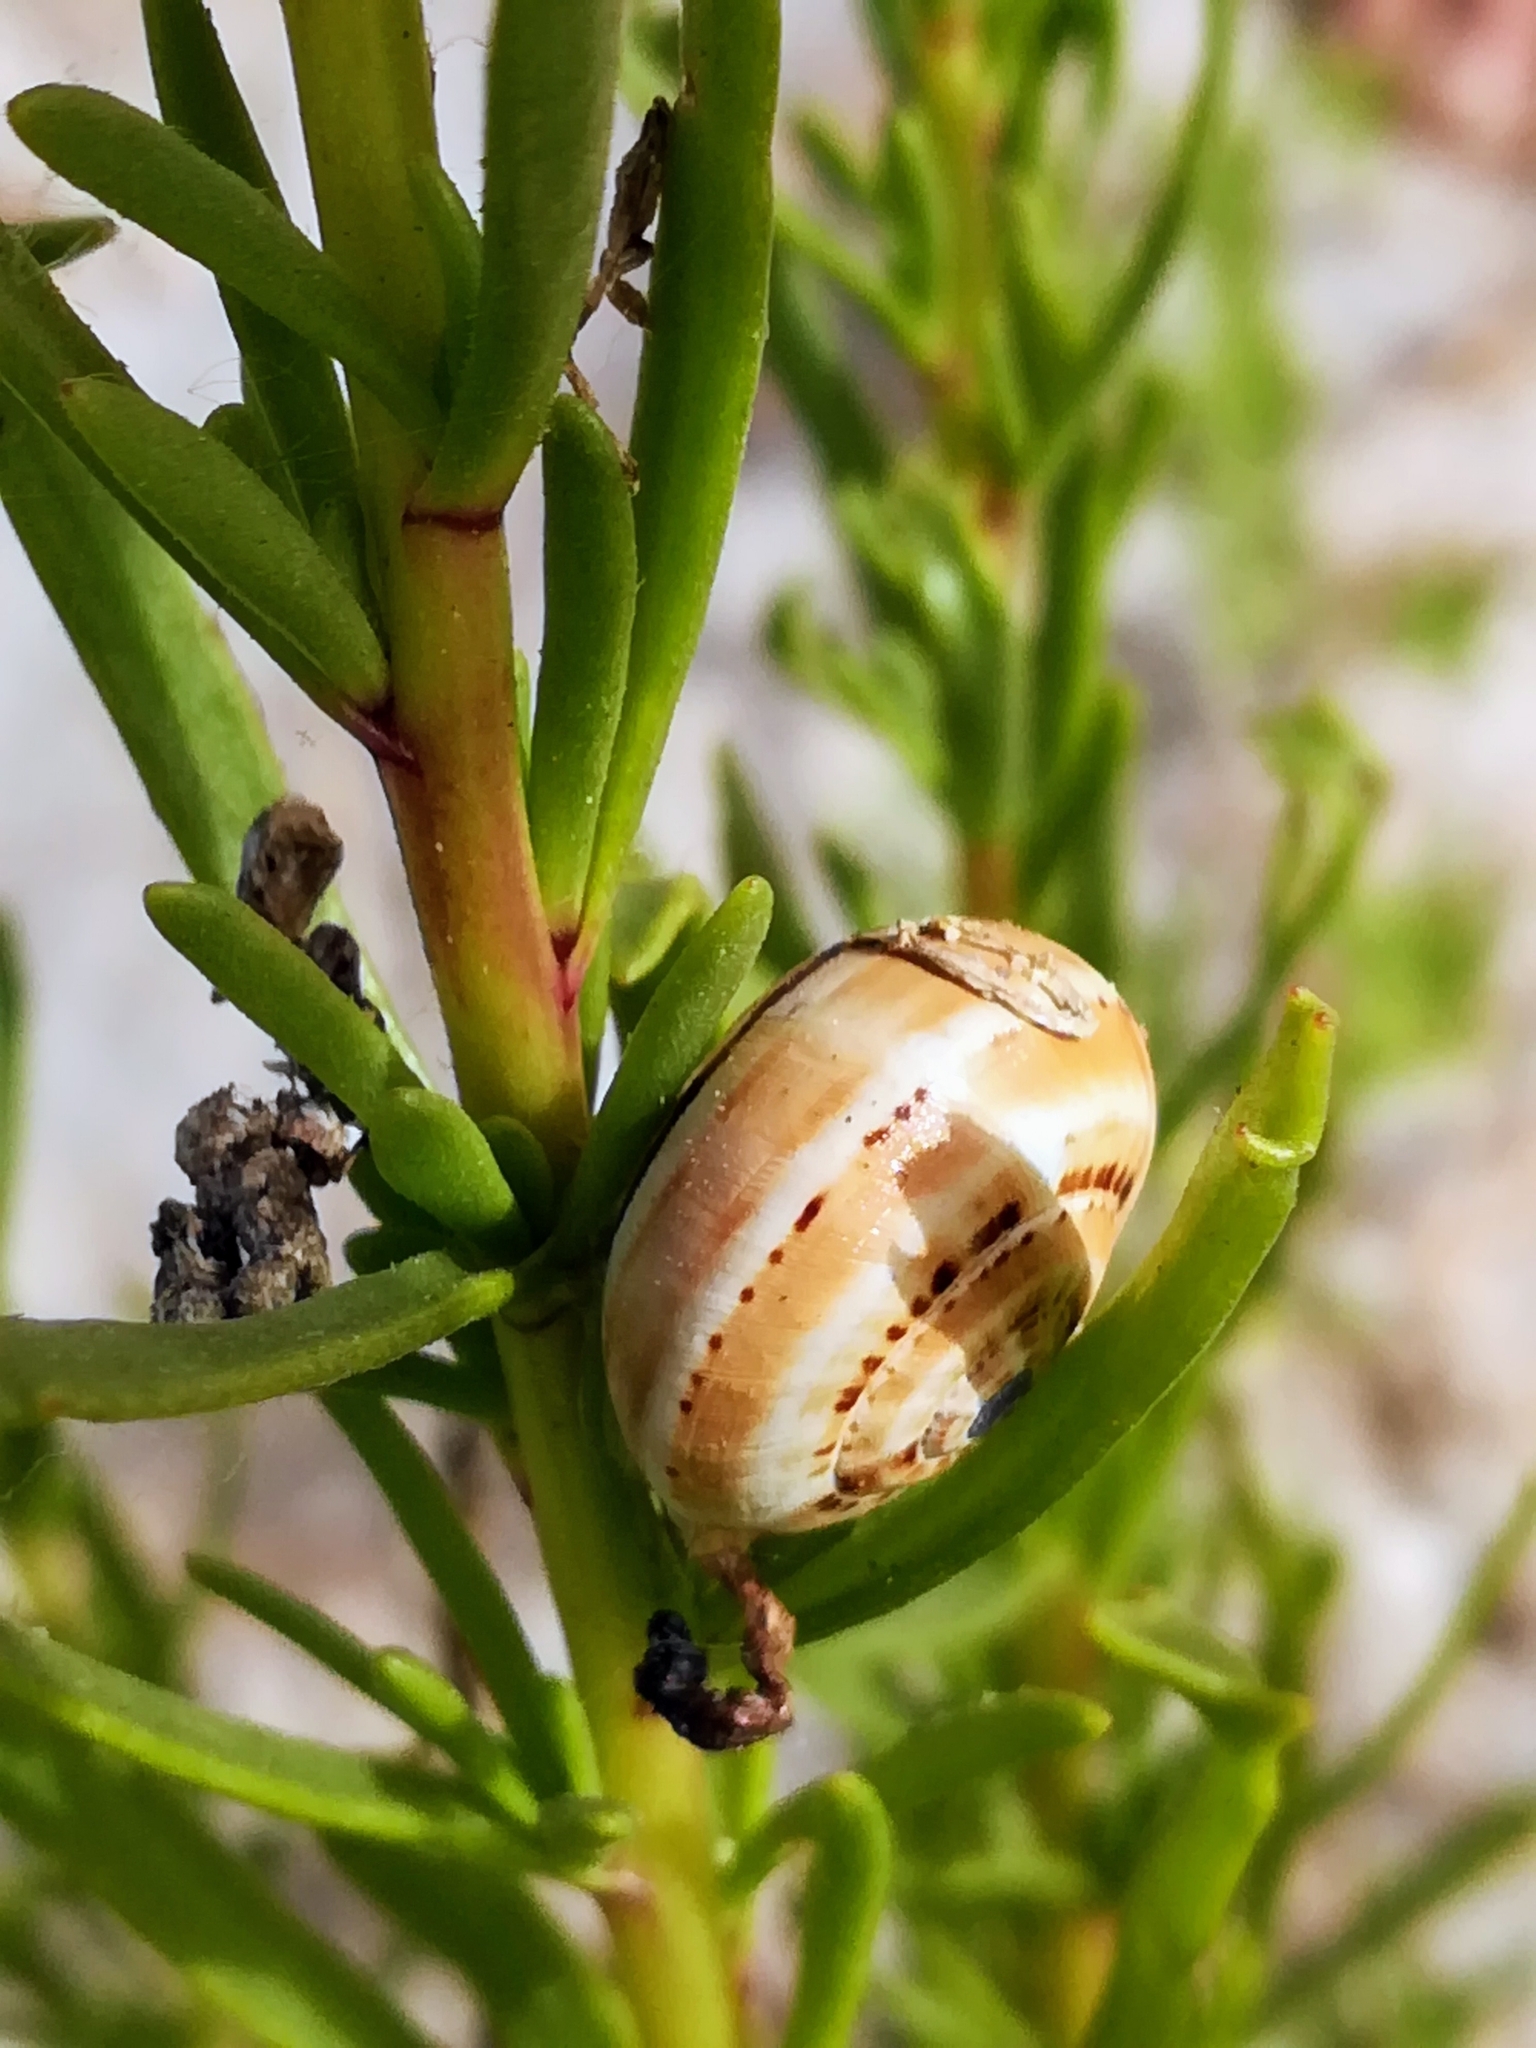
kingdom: Animalia
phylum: Mollusca
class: Gastropoda
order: Stylommatophora
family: Helicidae
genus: Theba
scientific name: Theba pisana
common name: White snail
